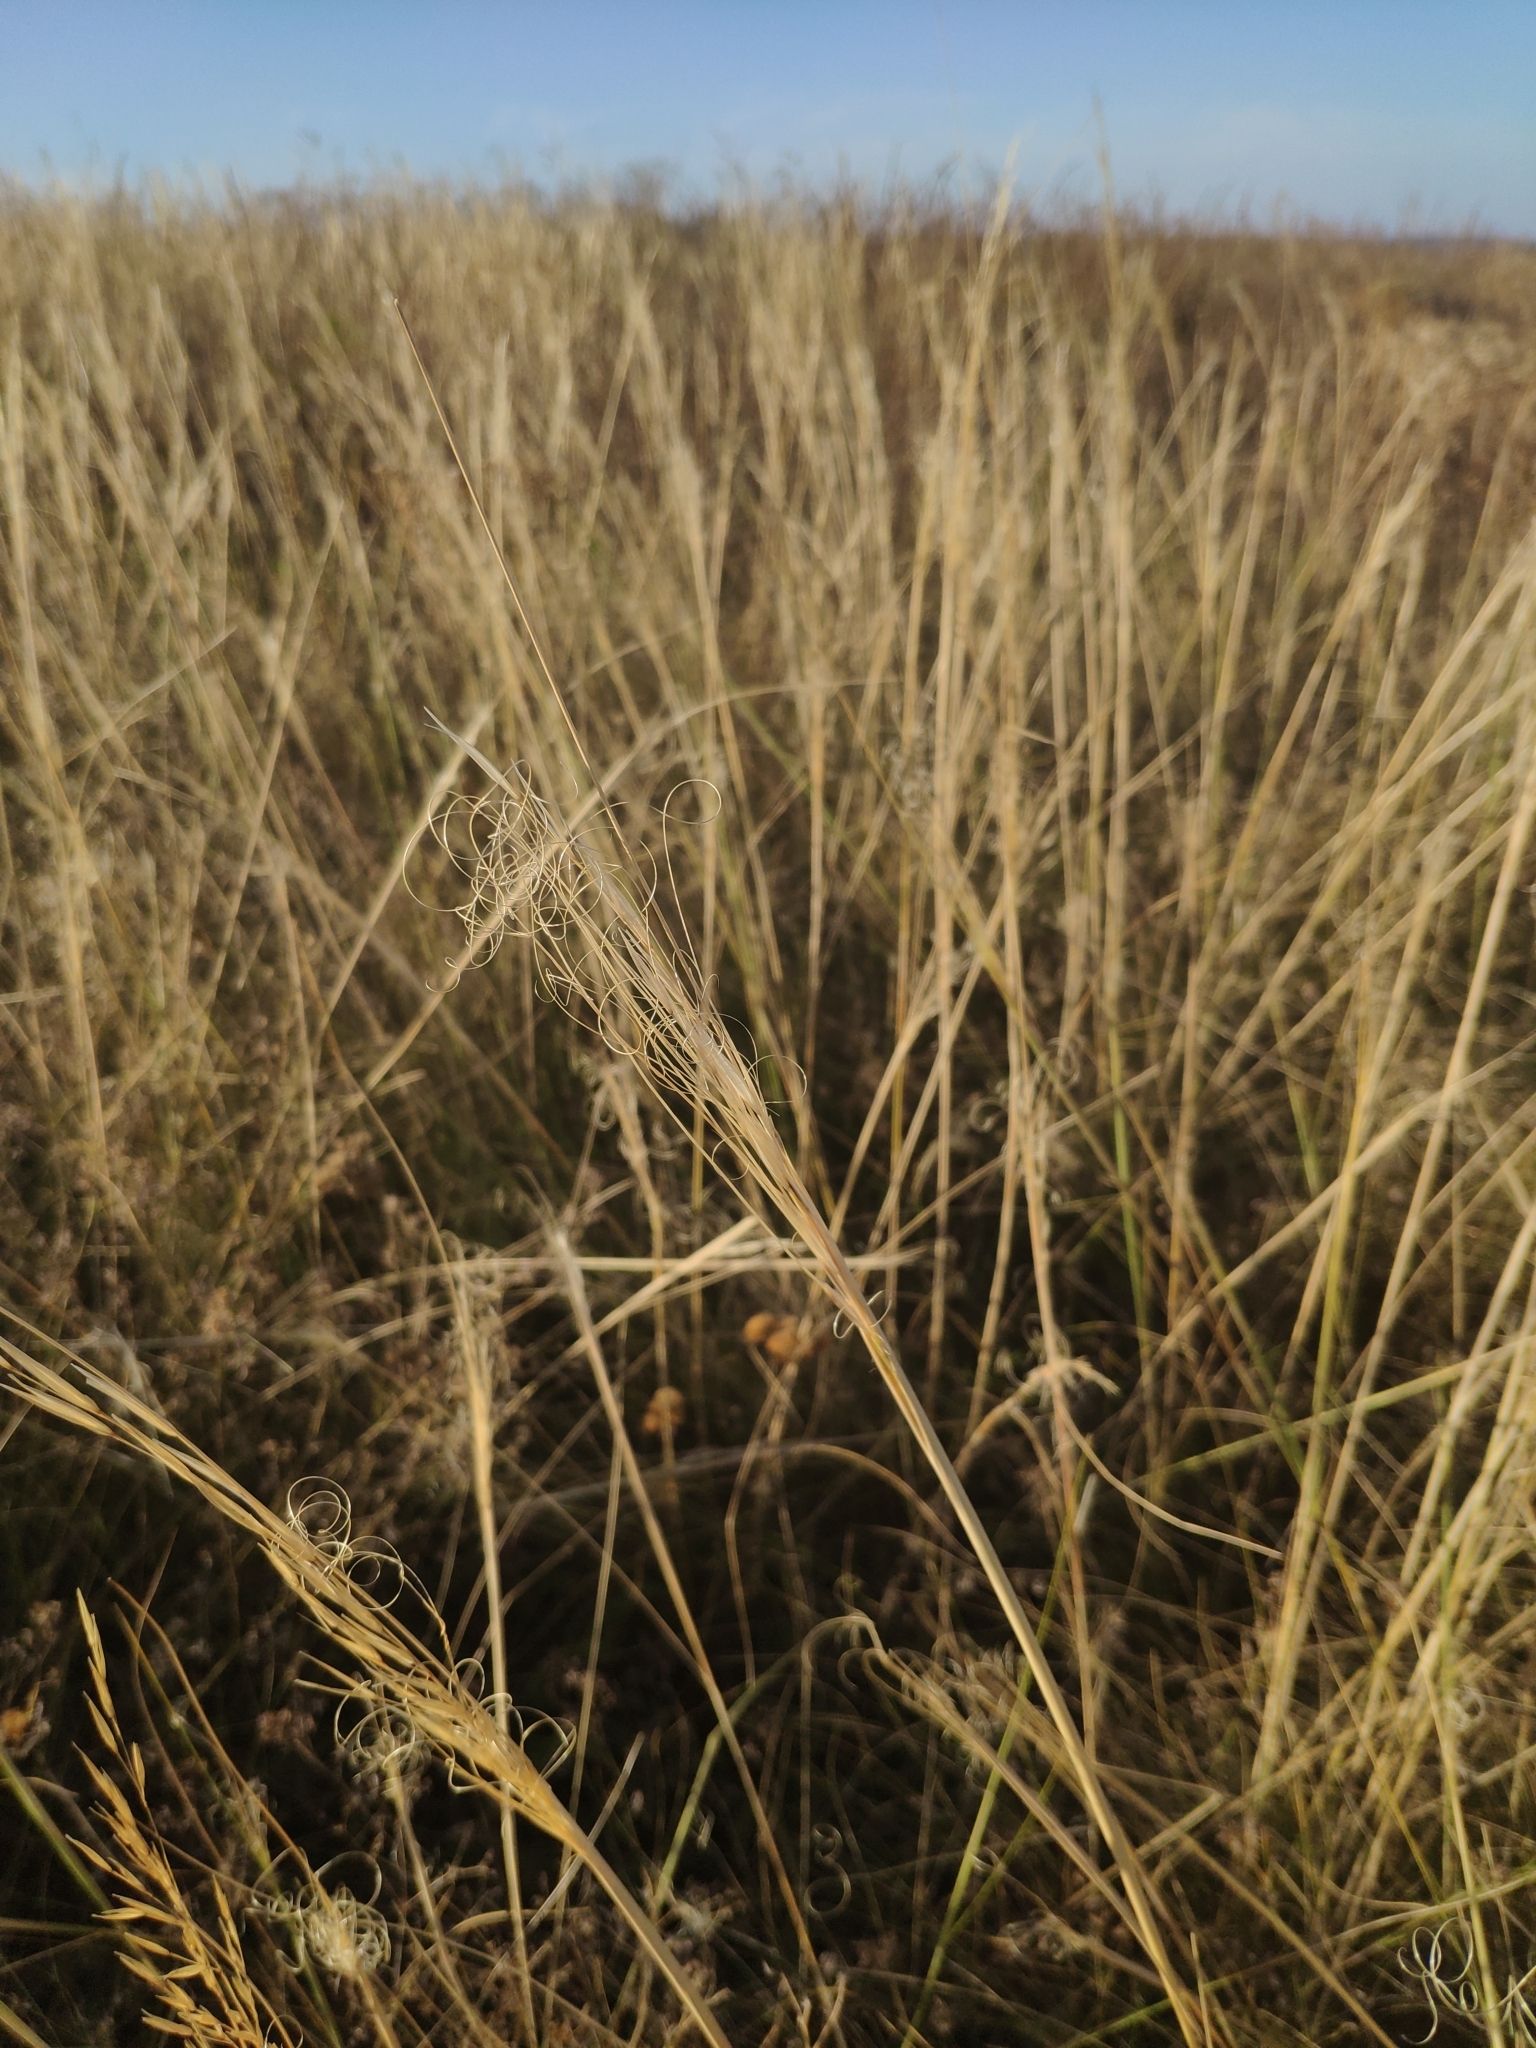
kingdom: Plantae
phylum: Tracheophyta
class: Liliopsida
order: Poales
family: Poaceae
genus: Stipa
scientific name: Stipa capillata
